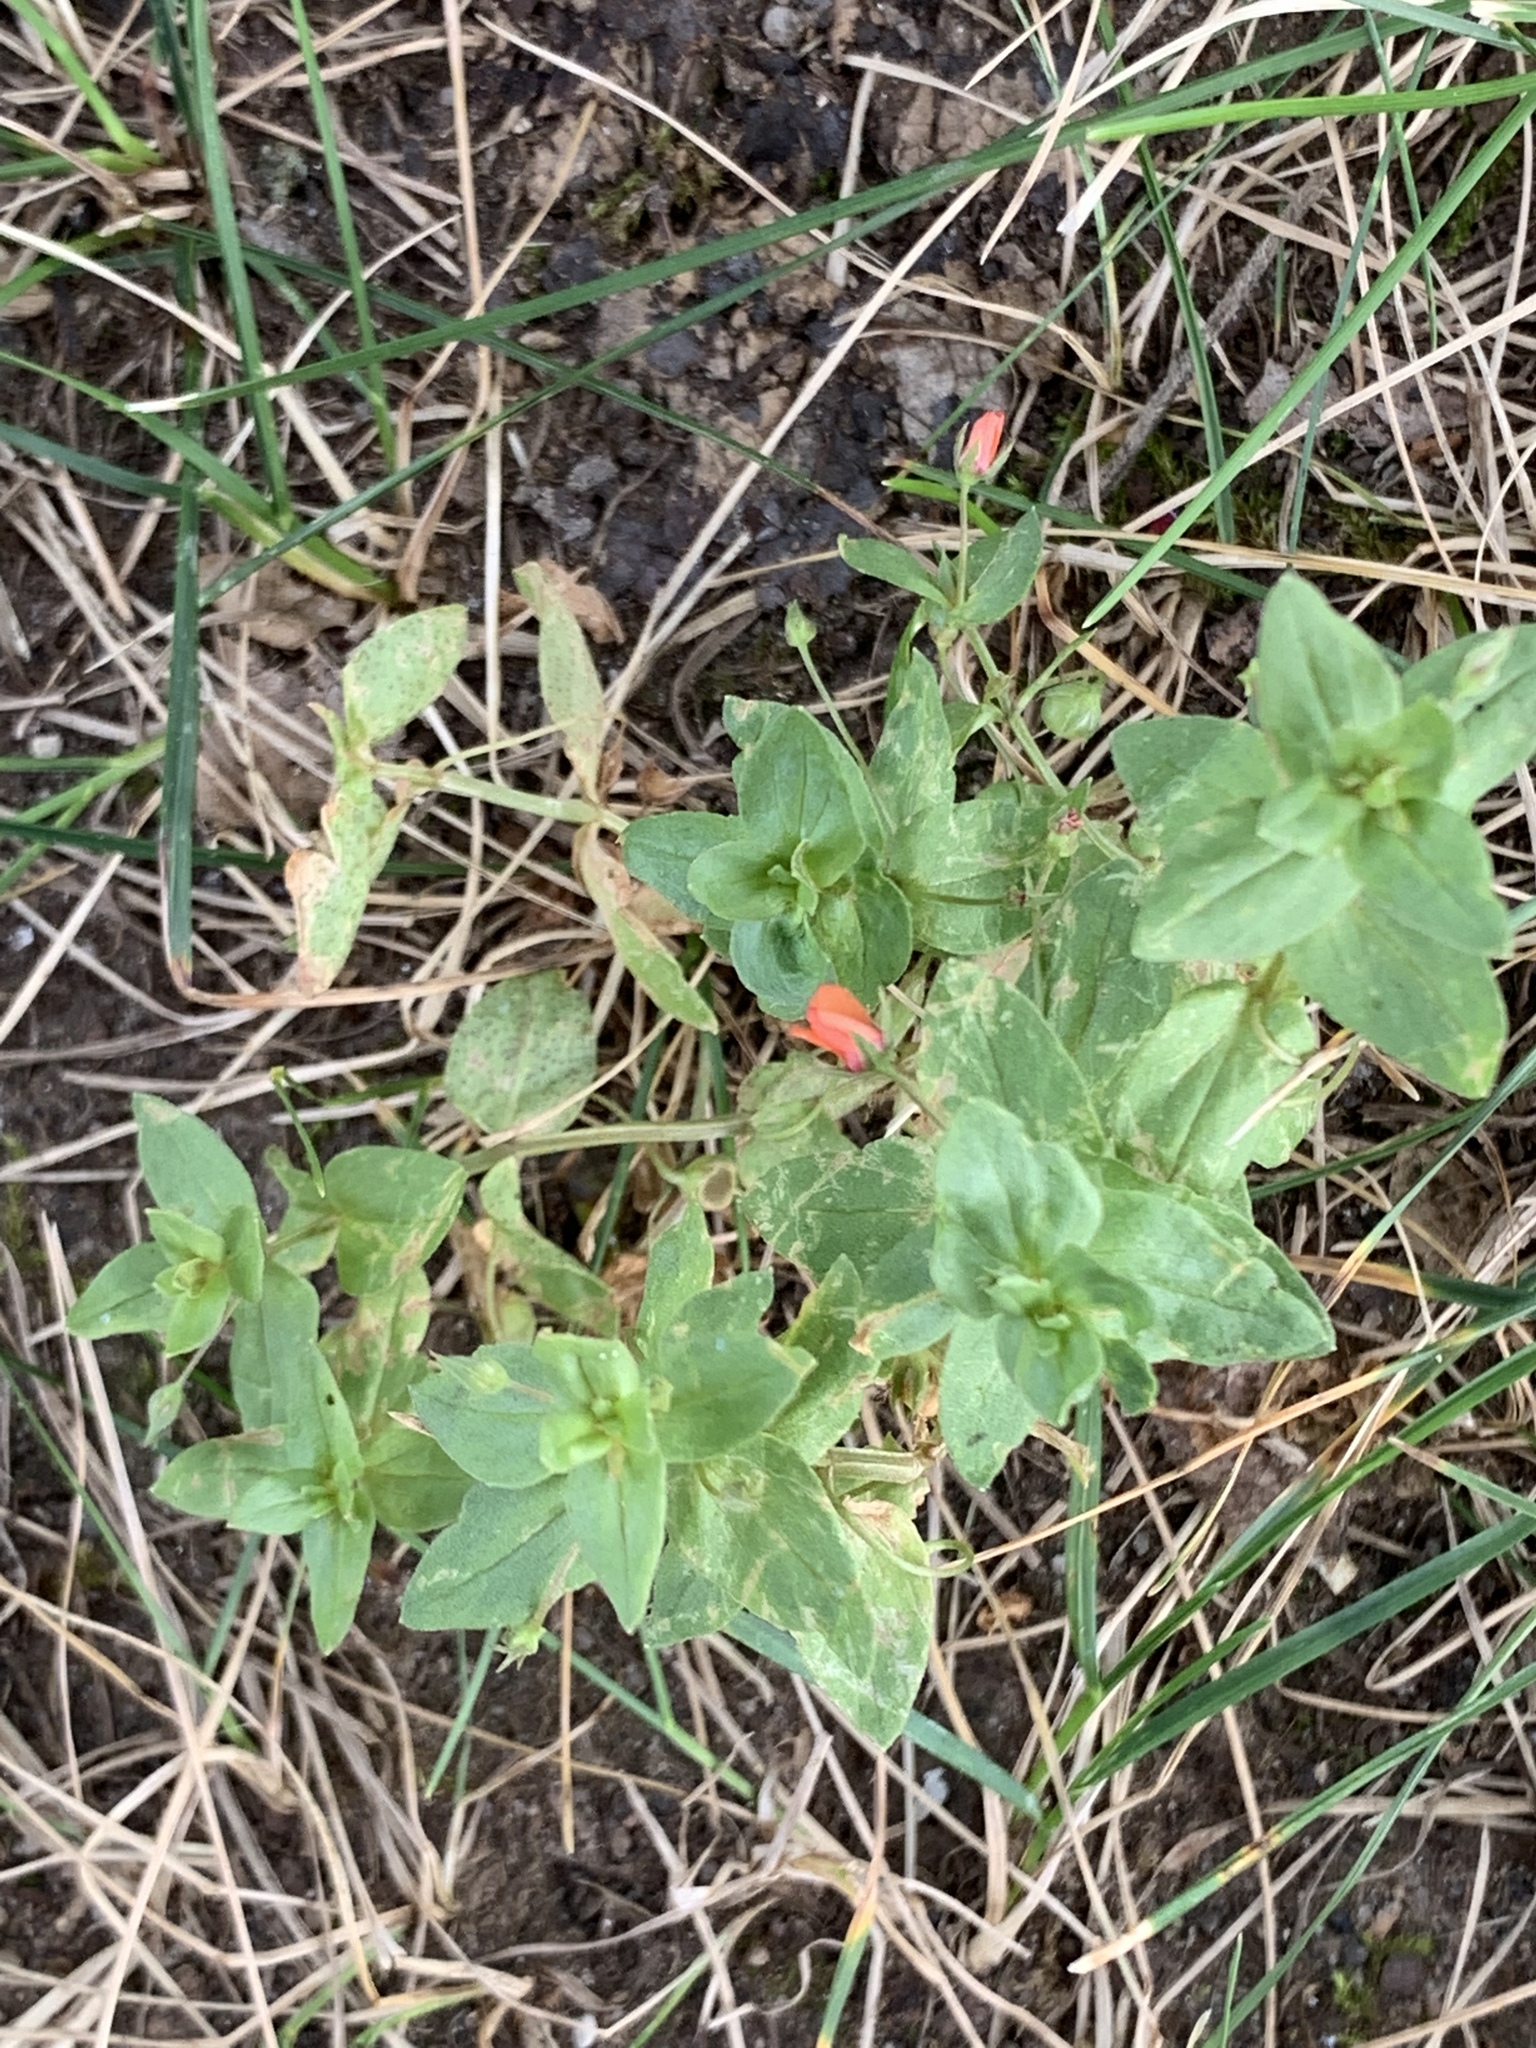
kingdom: Plantae
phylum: Tracheophyta
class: Magnoliopsida
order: Ericales
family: Primulaceae
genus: Lysimachia
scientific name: Lysimachia arvensis
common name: Scarlet pimpernel
